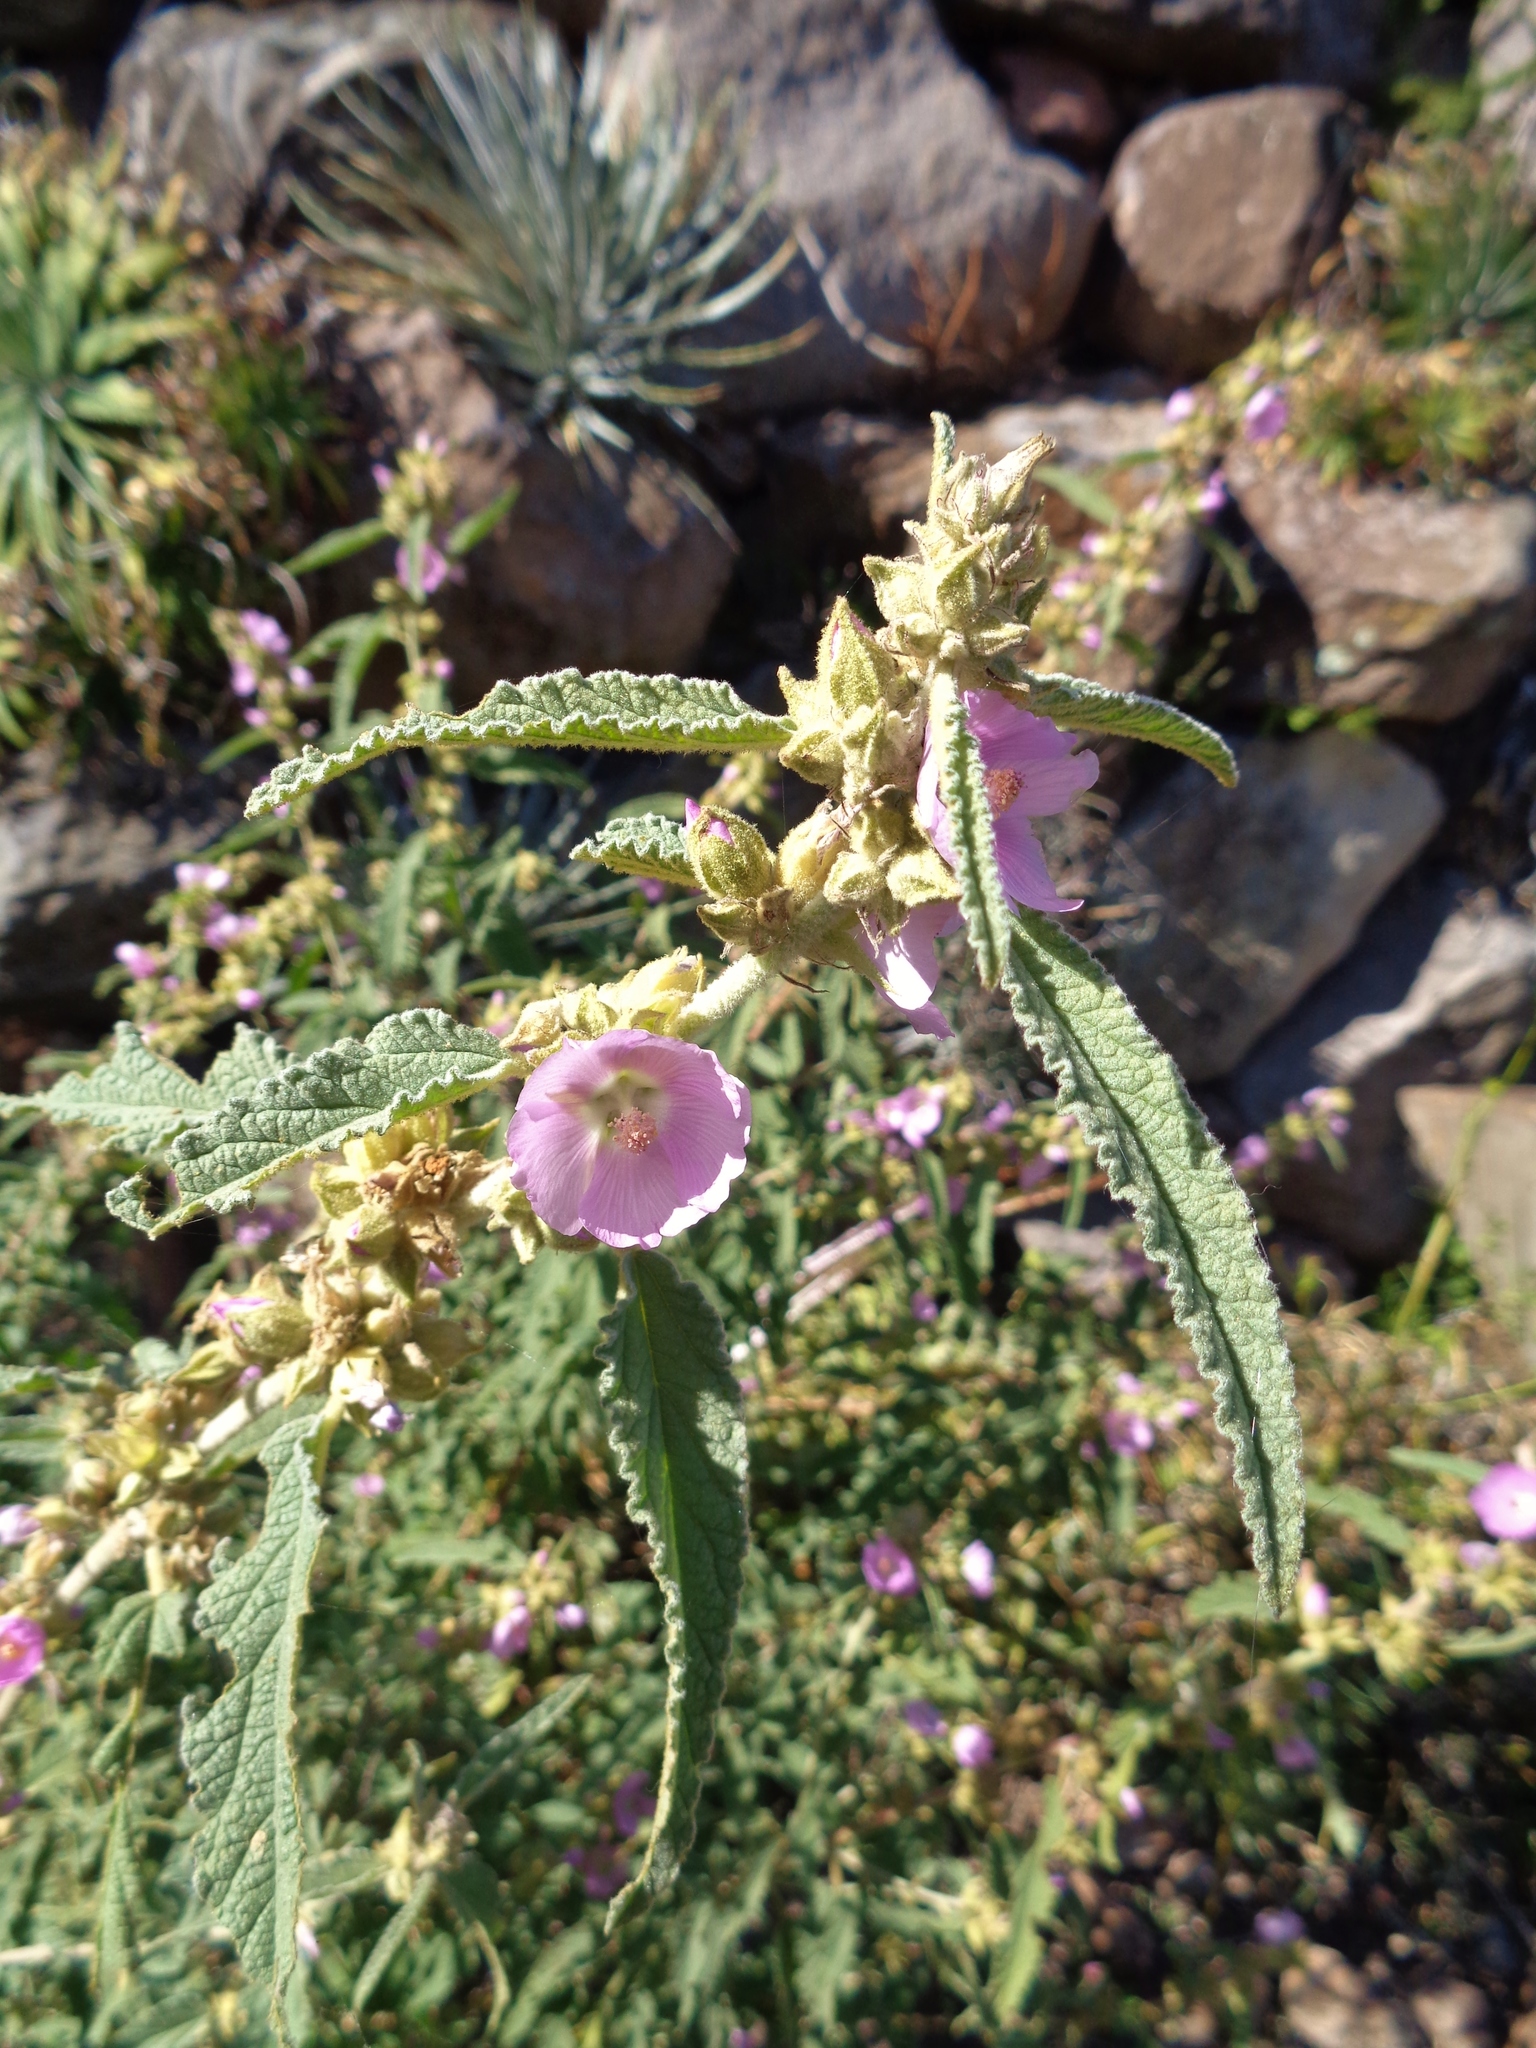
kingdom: Plantae
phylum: Tracheophyta
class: Magnoliopsida
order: Malvales
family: Malvaceae
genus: Sphaeralcea
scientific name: Sphaeralcea angustifolia
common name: Copper globe-mallow
